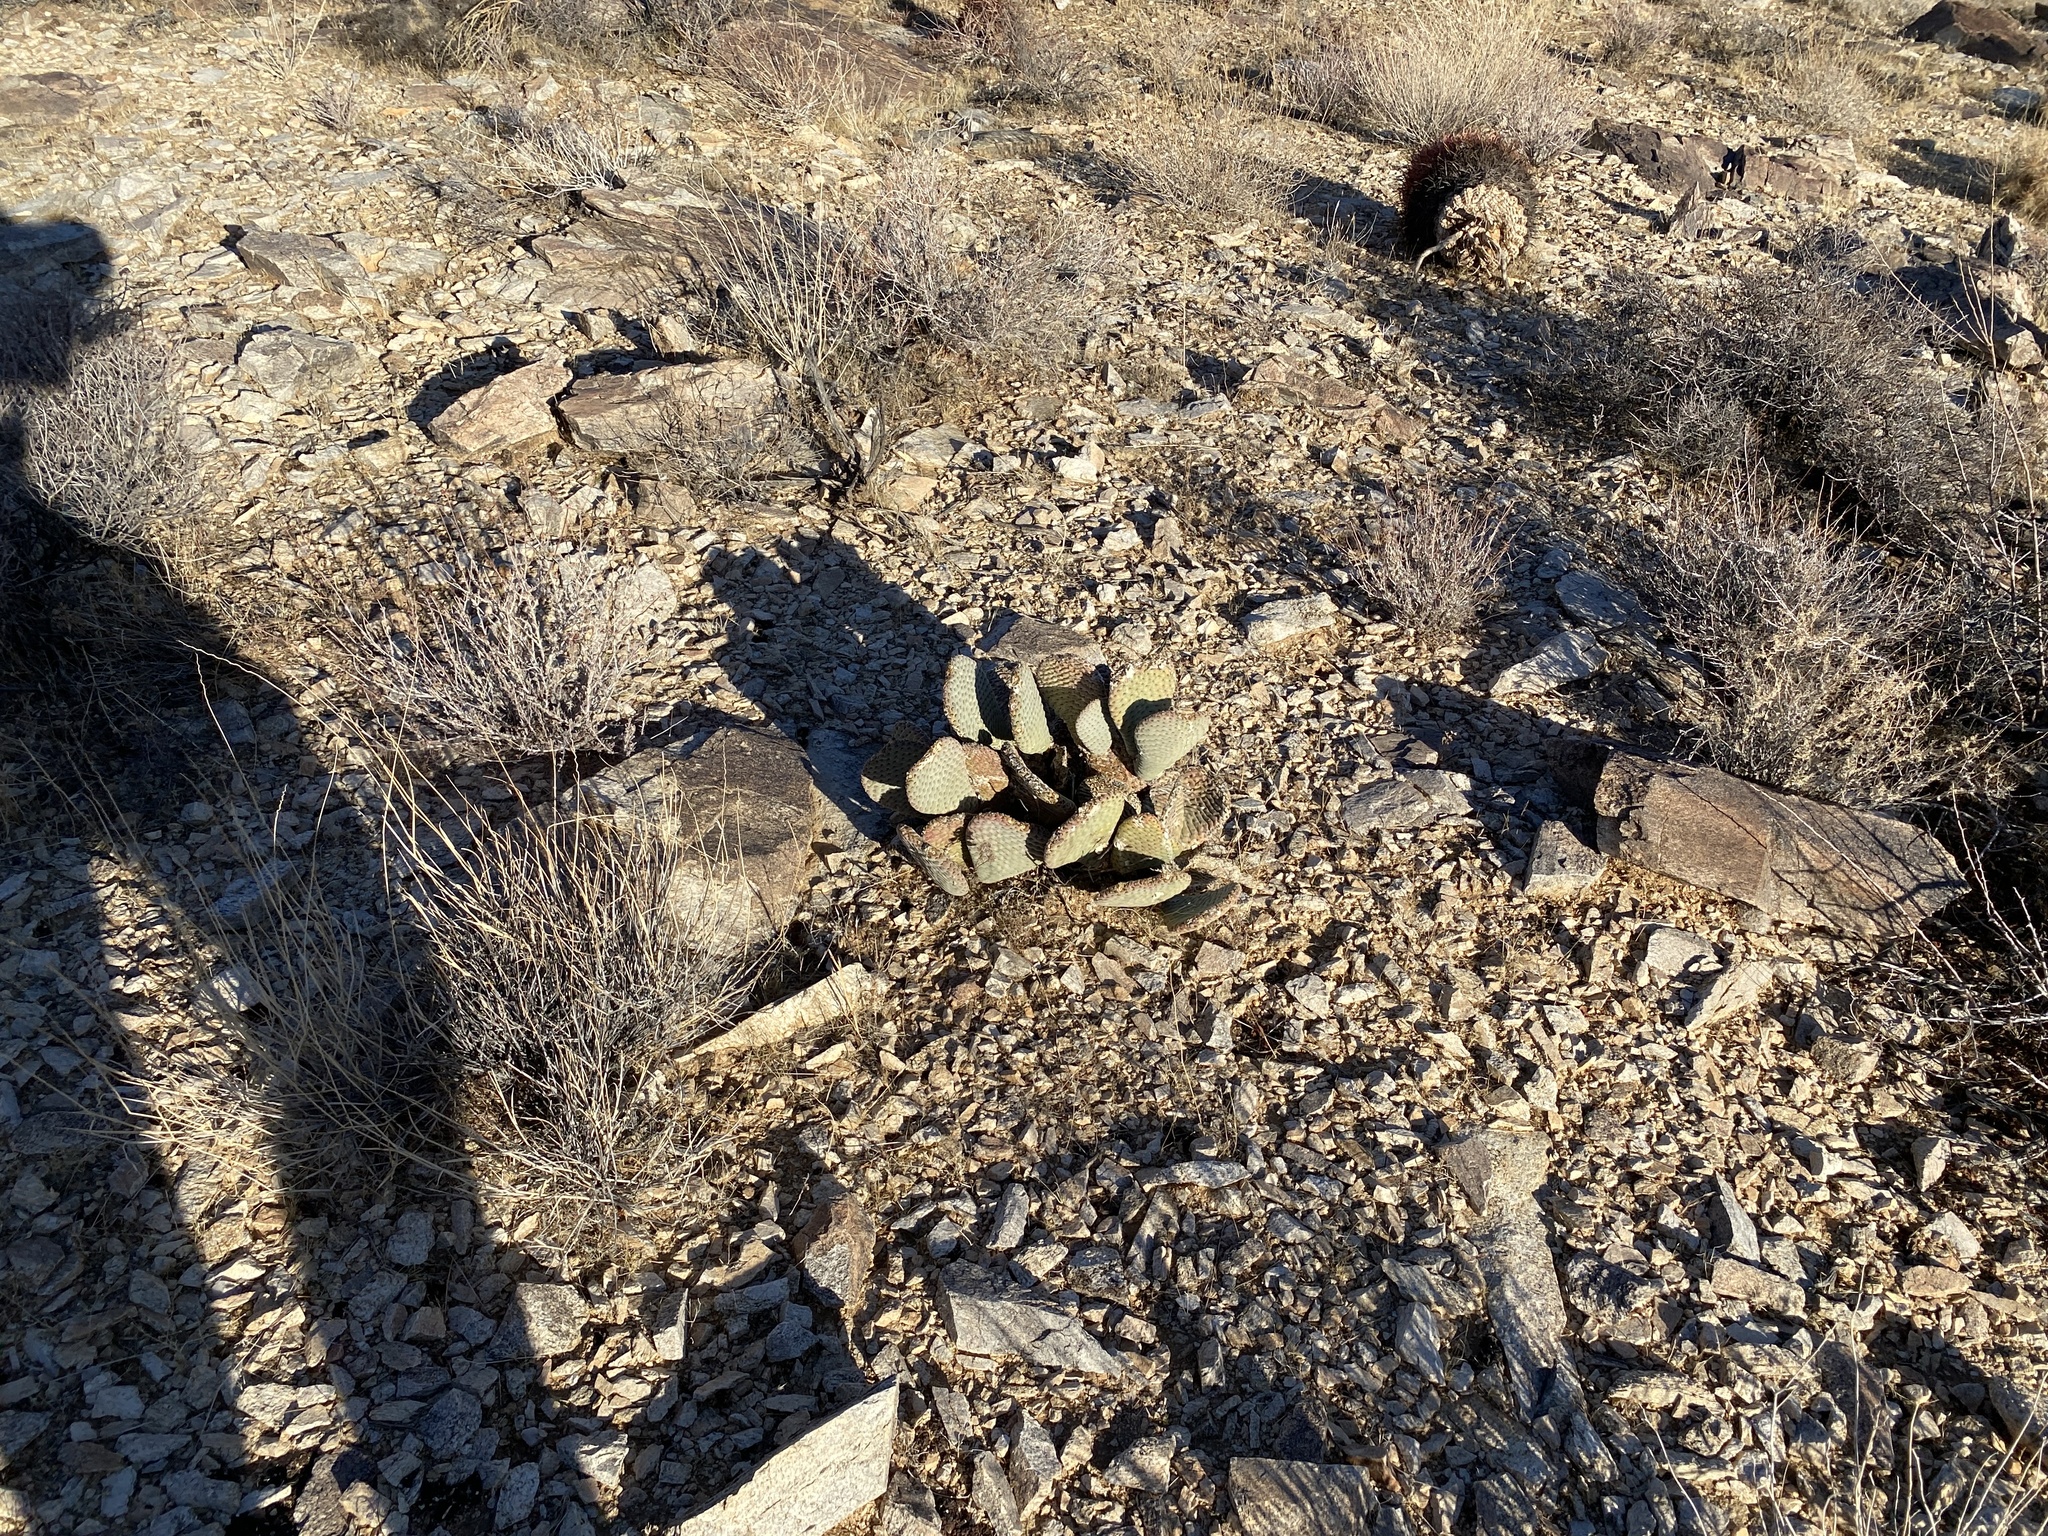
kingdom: Plantae
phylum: Tracheophyta
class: Magnoliopsida
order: Caryophyllales
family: Cactaceae
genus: Opuntia
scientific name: Opuntia basilaris
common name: Beavertail prickly-pear
